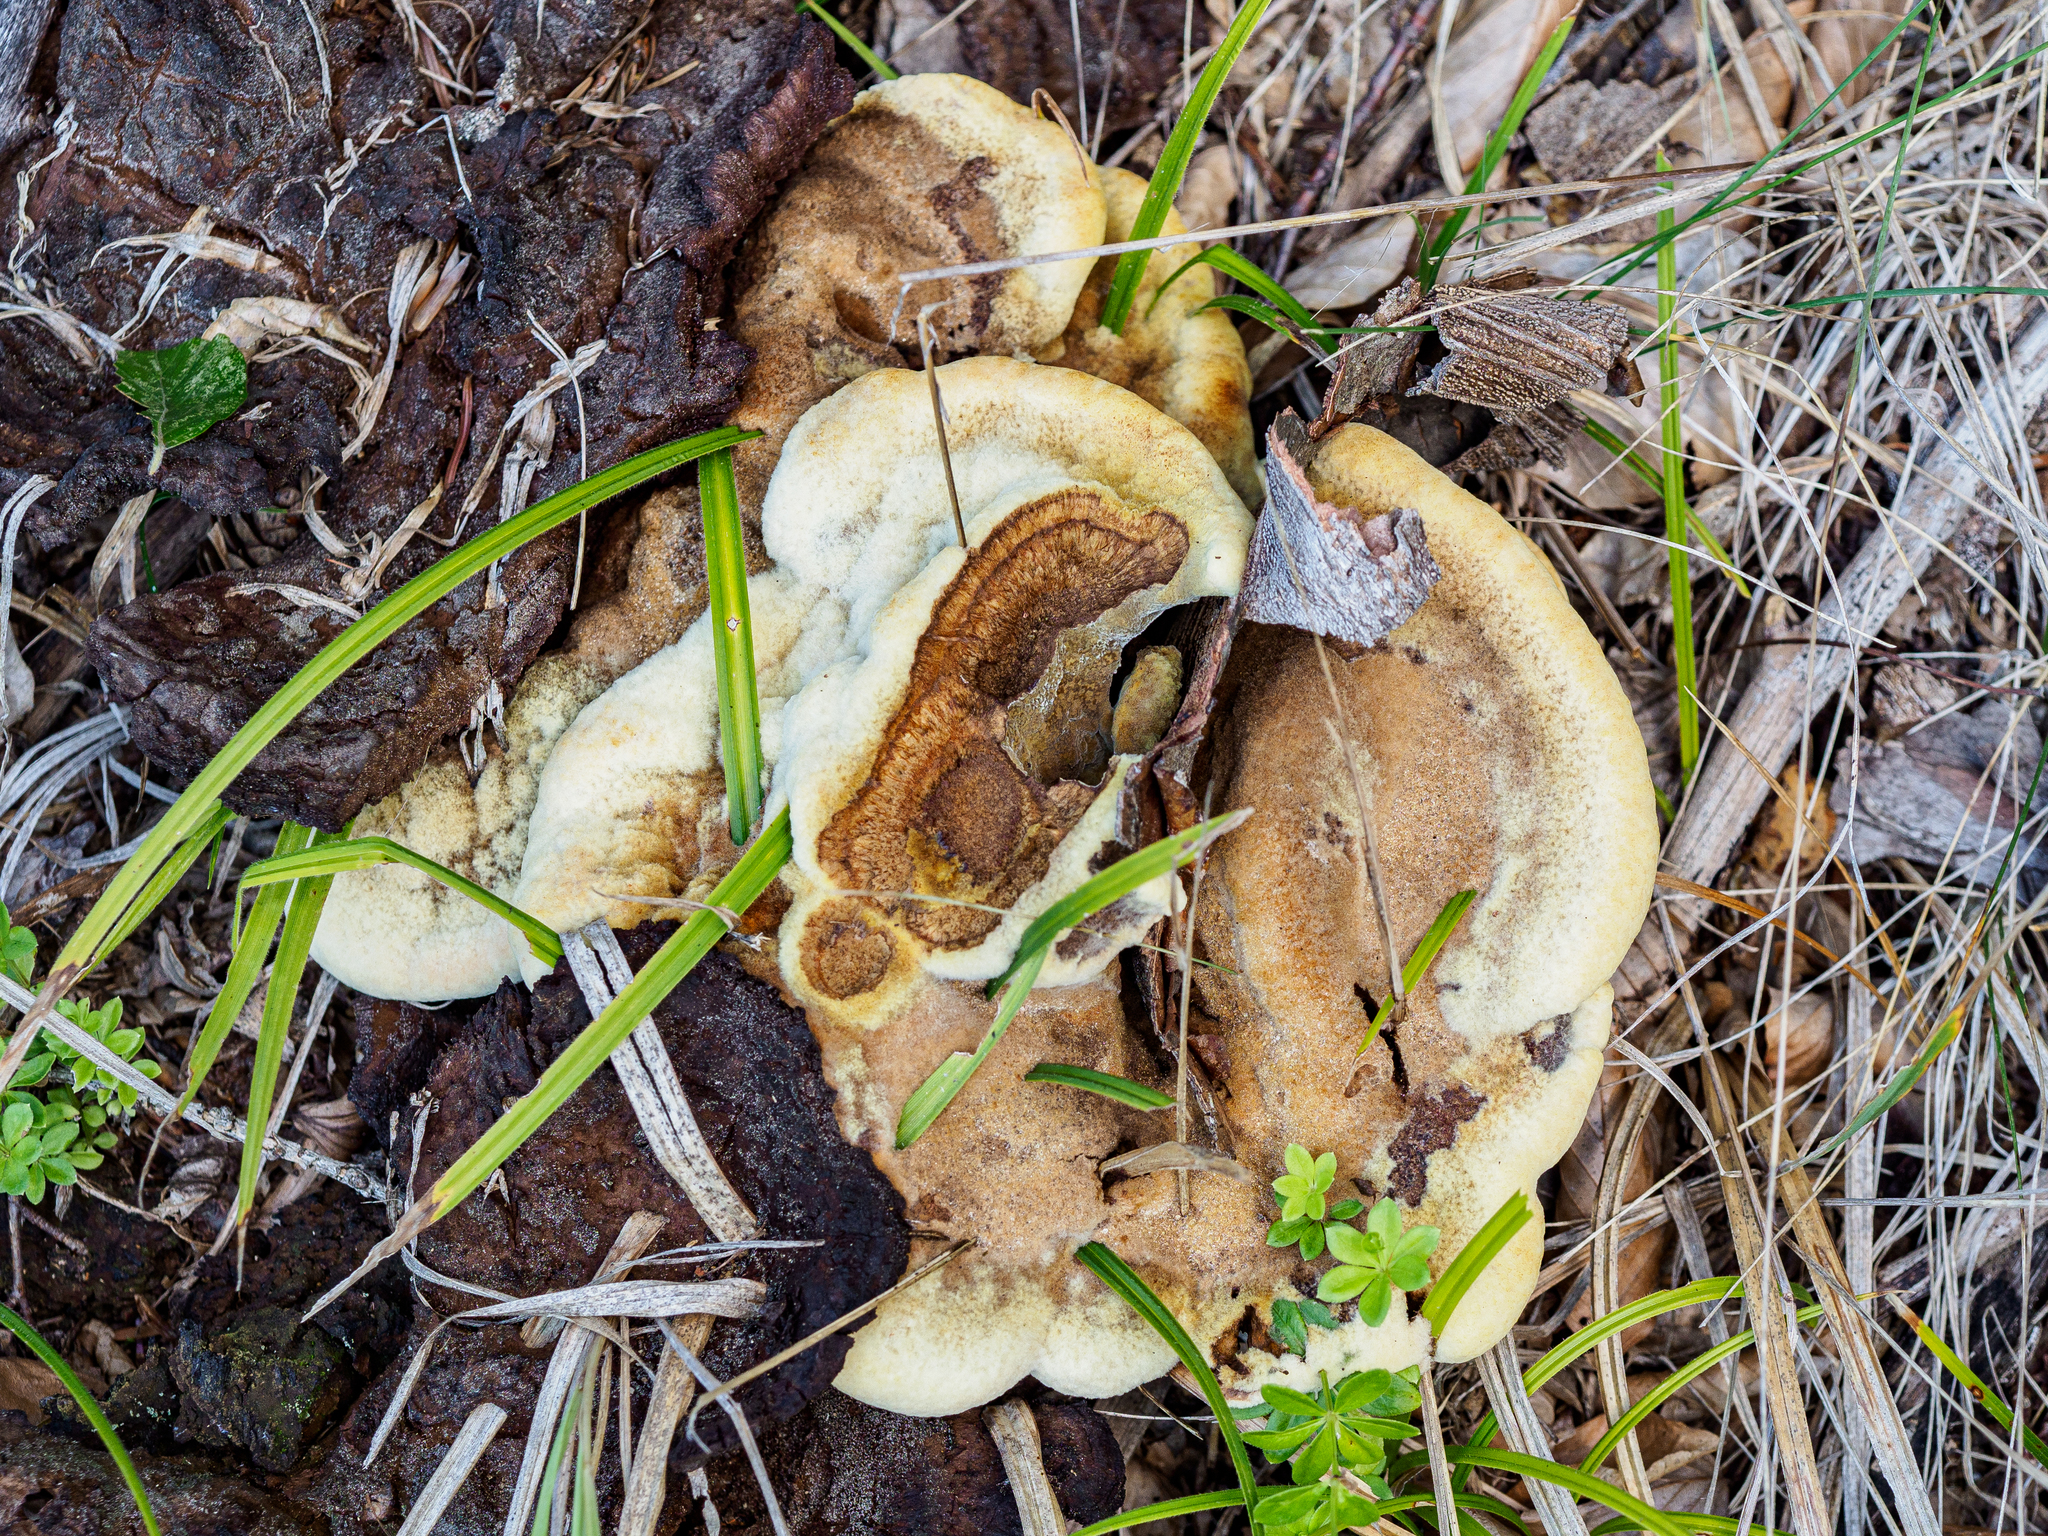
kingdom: Fungi
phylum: Basidiomycota
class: Agaricomycetes
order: Polyporales
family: Laetiporaceae
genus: Phaeolus
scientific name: Phaeolus schweinitzii
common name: Dyer's mazegill
